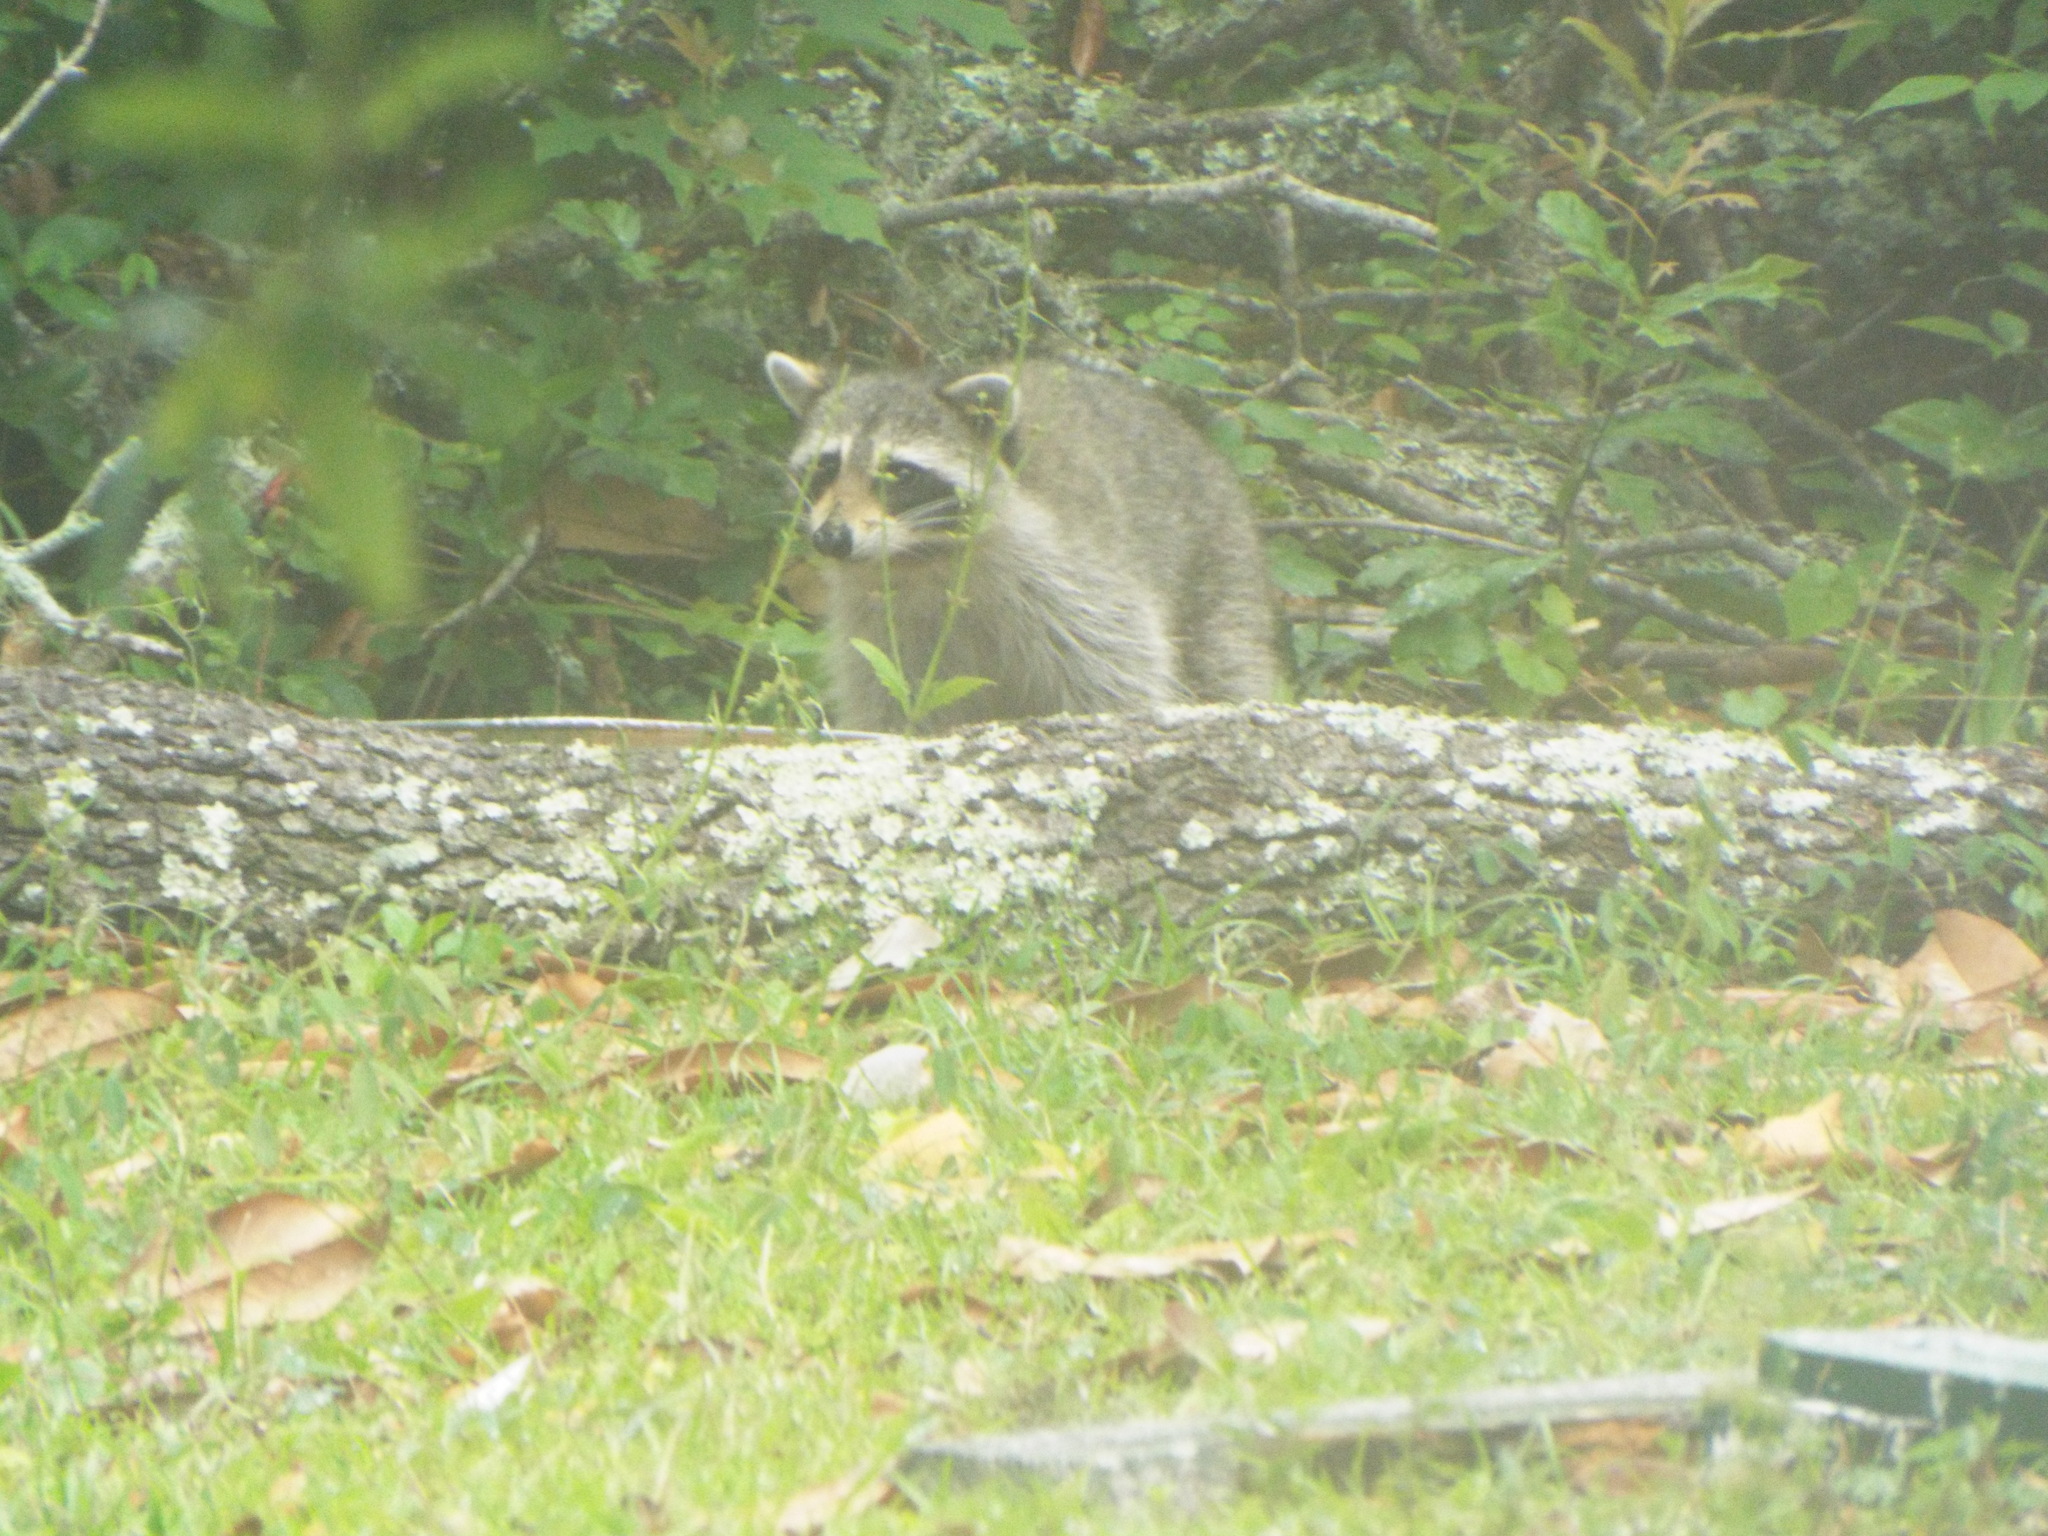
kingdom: Animalia
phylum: Chordata
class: Mammalia
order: Carnivora
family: Procyonidae
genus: Procyon
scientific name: Procyon lotor
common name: Raccoon
